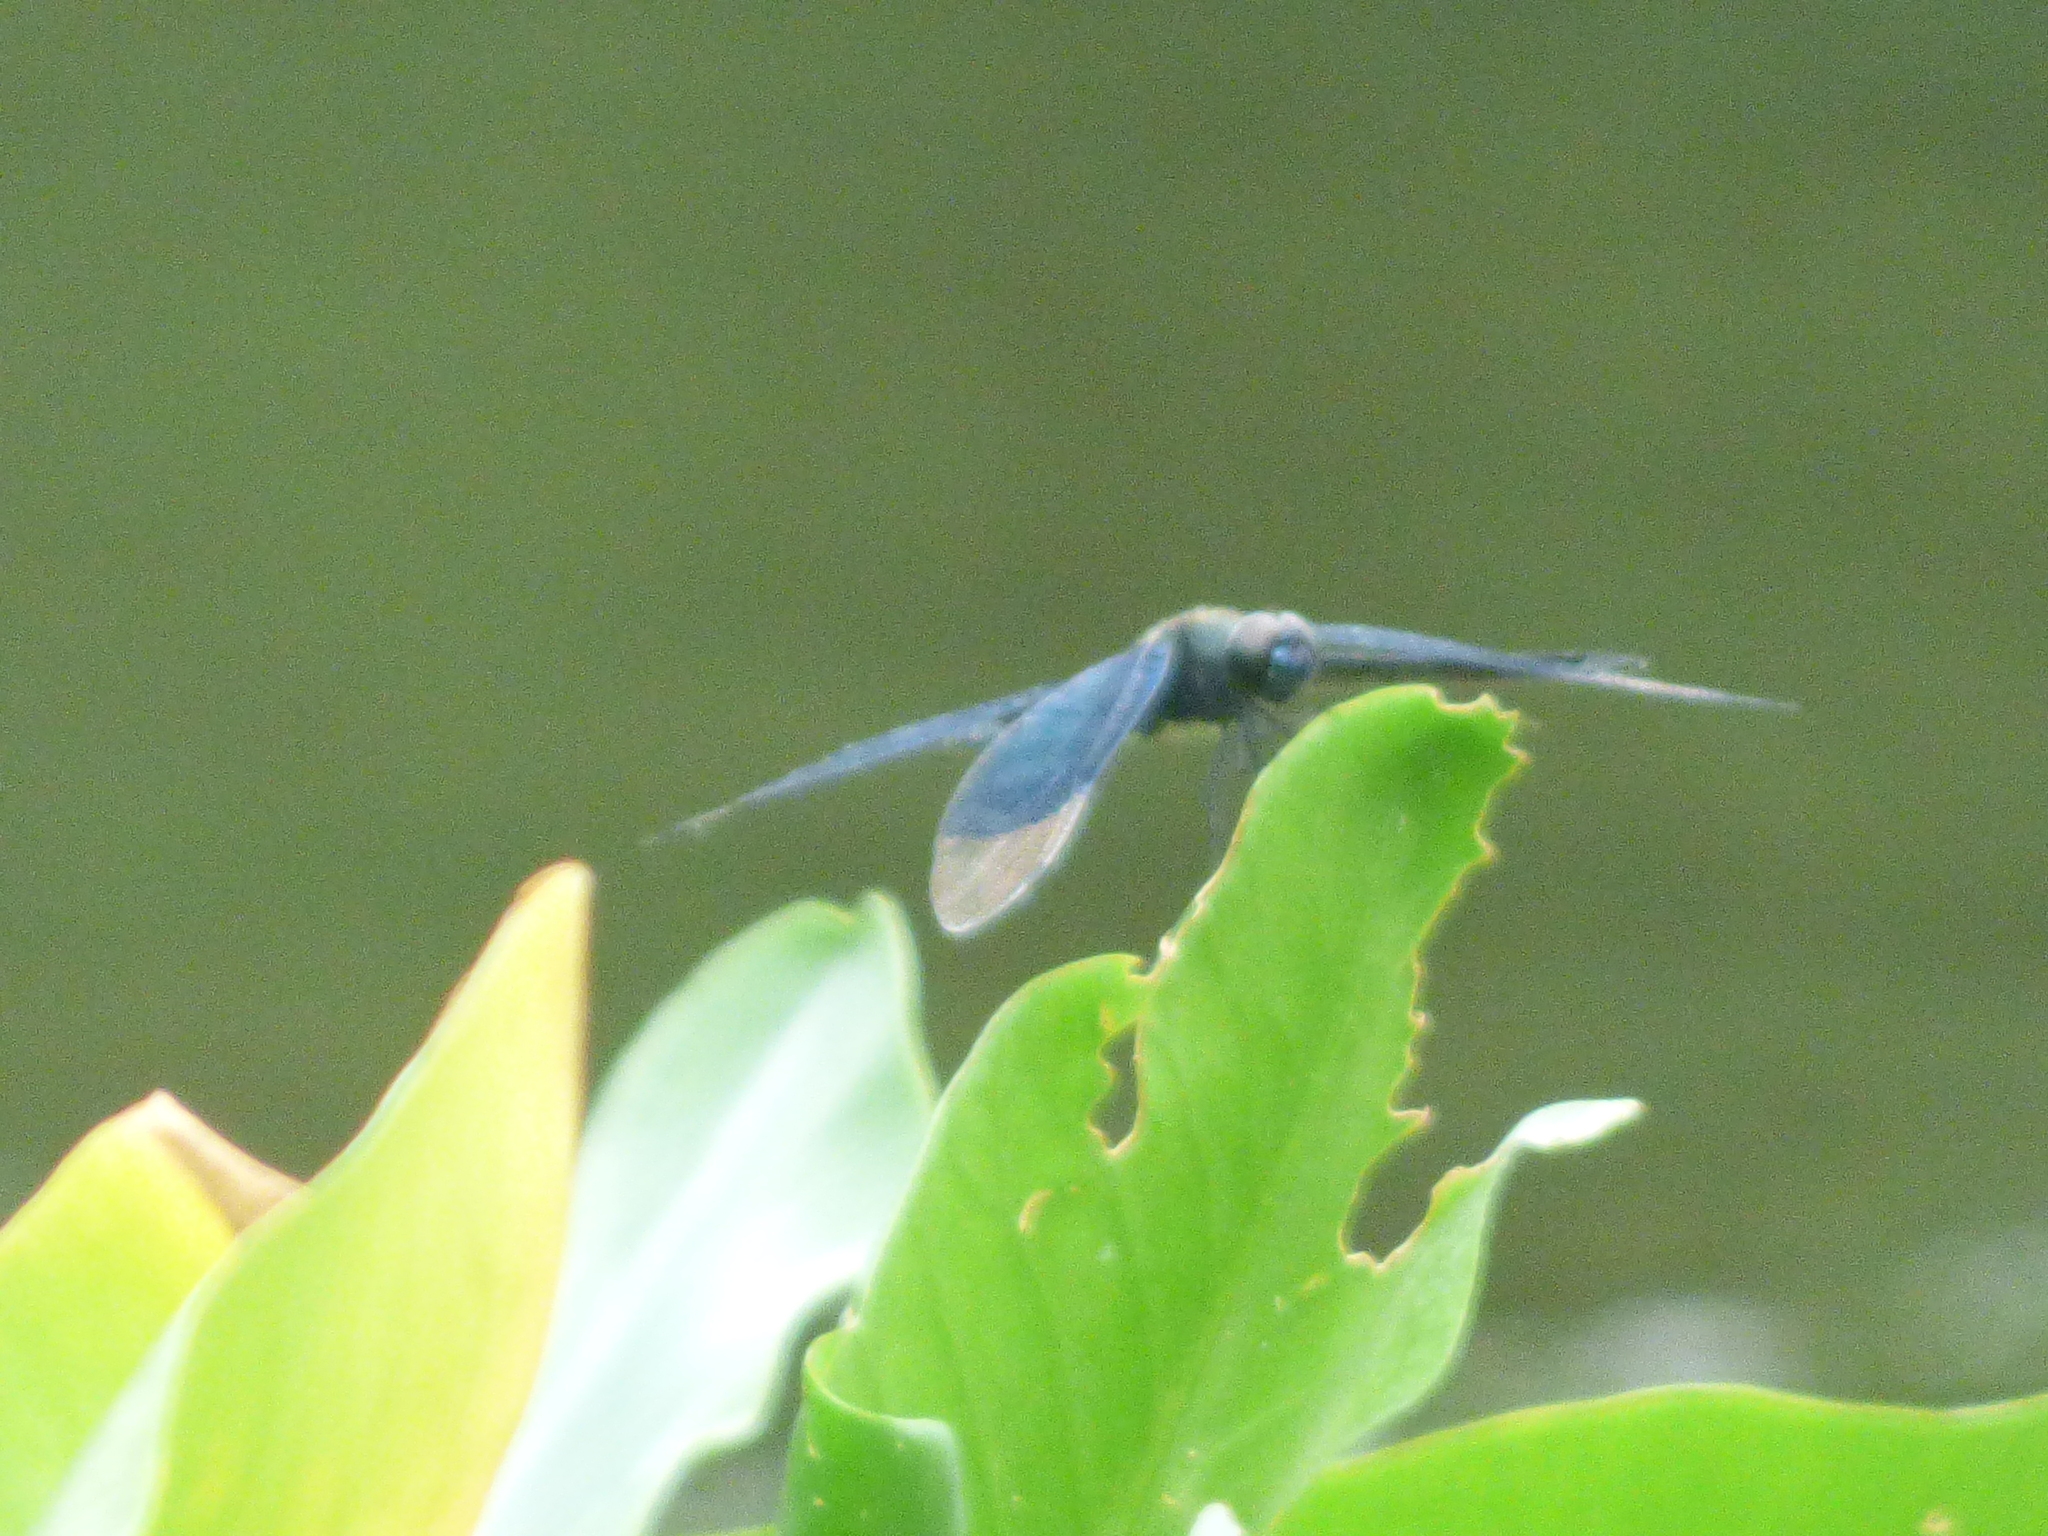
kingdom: Animalia
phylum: Arthropoda
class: Insecta
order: Odonata
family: Libellulidae
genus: Rhyothemis
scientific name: Rhyothemis fuliginosa
